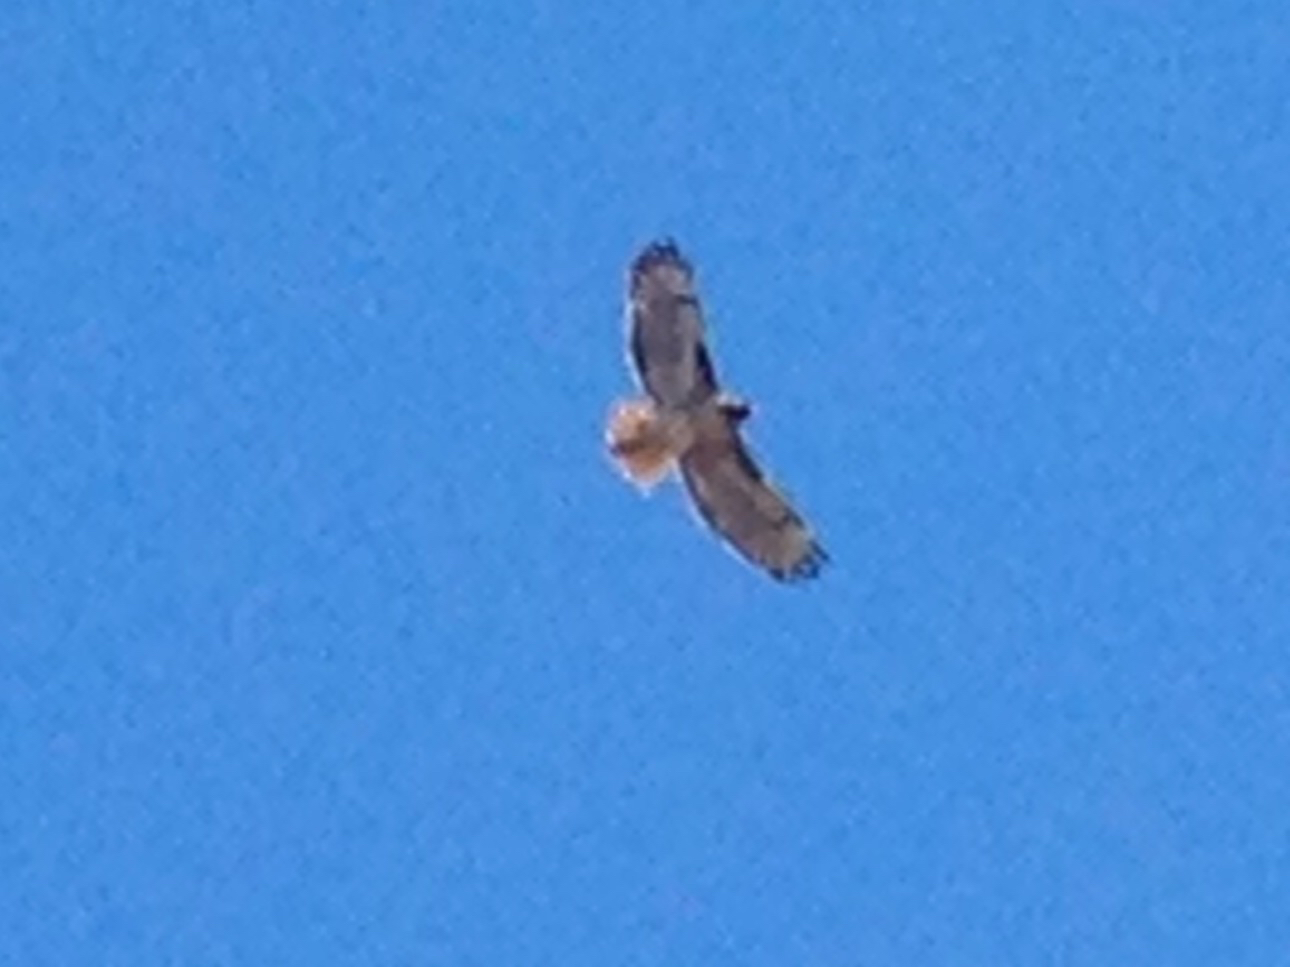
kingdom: Animalia
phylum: Chordata
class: Aves
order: Accipitriformes
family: Accipitridae
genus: Buteo
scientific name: Buteo jamaicensis
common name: Red-tailed hawk
